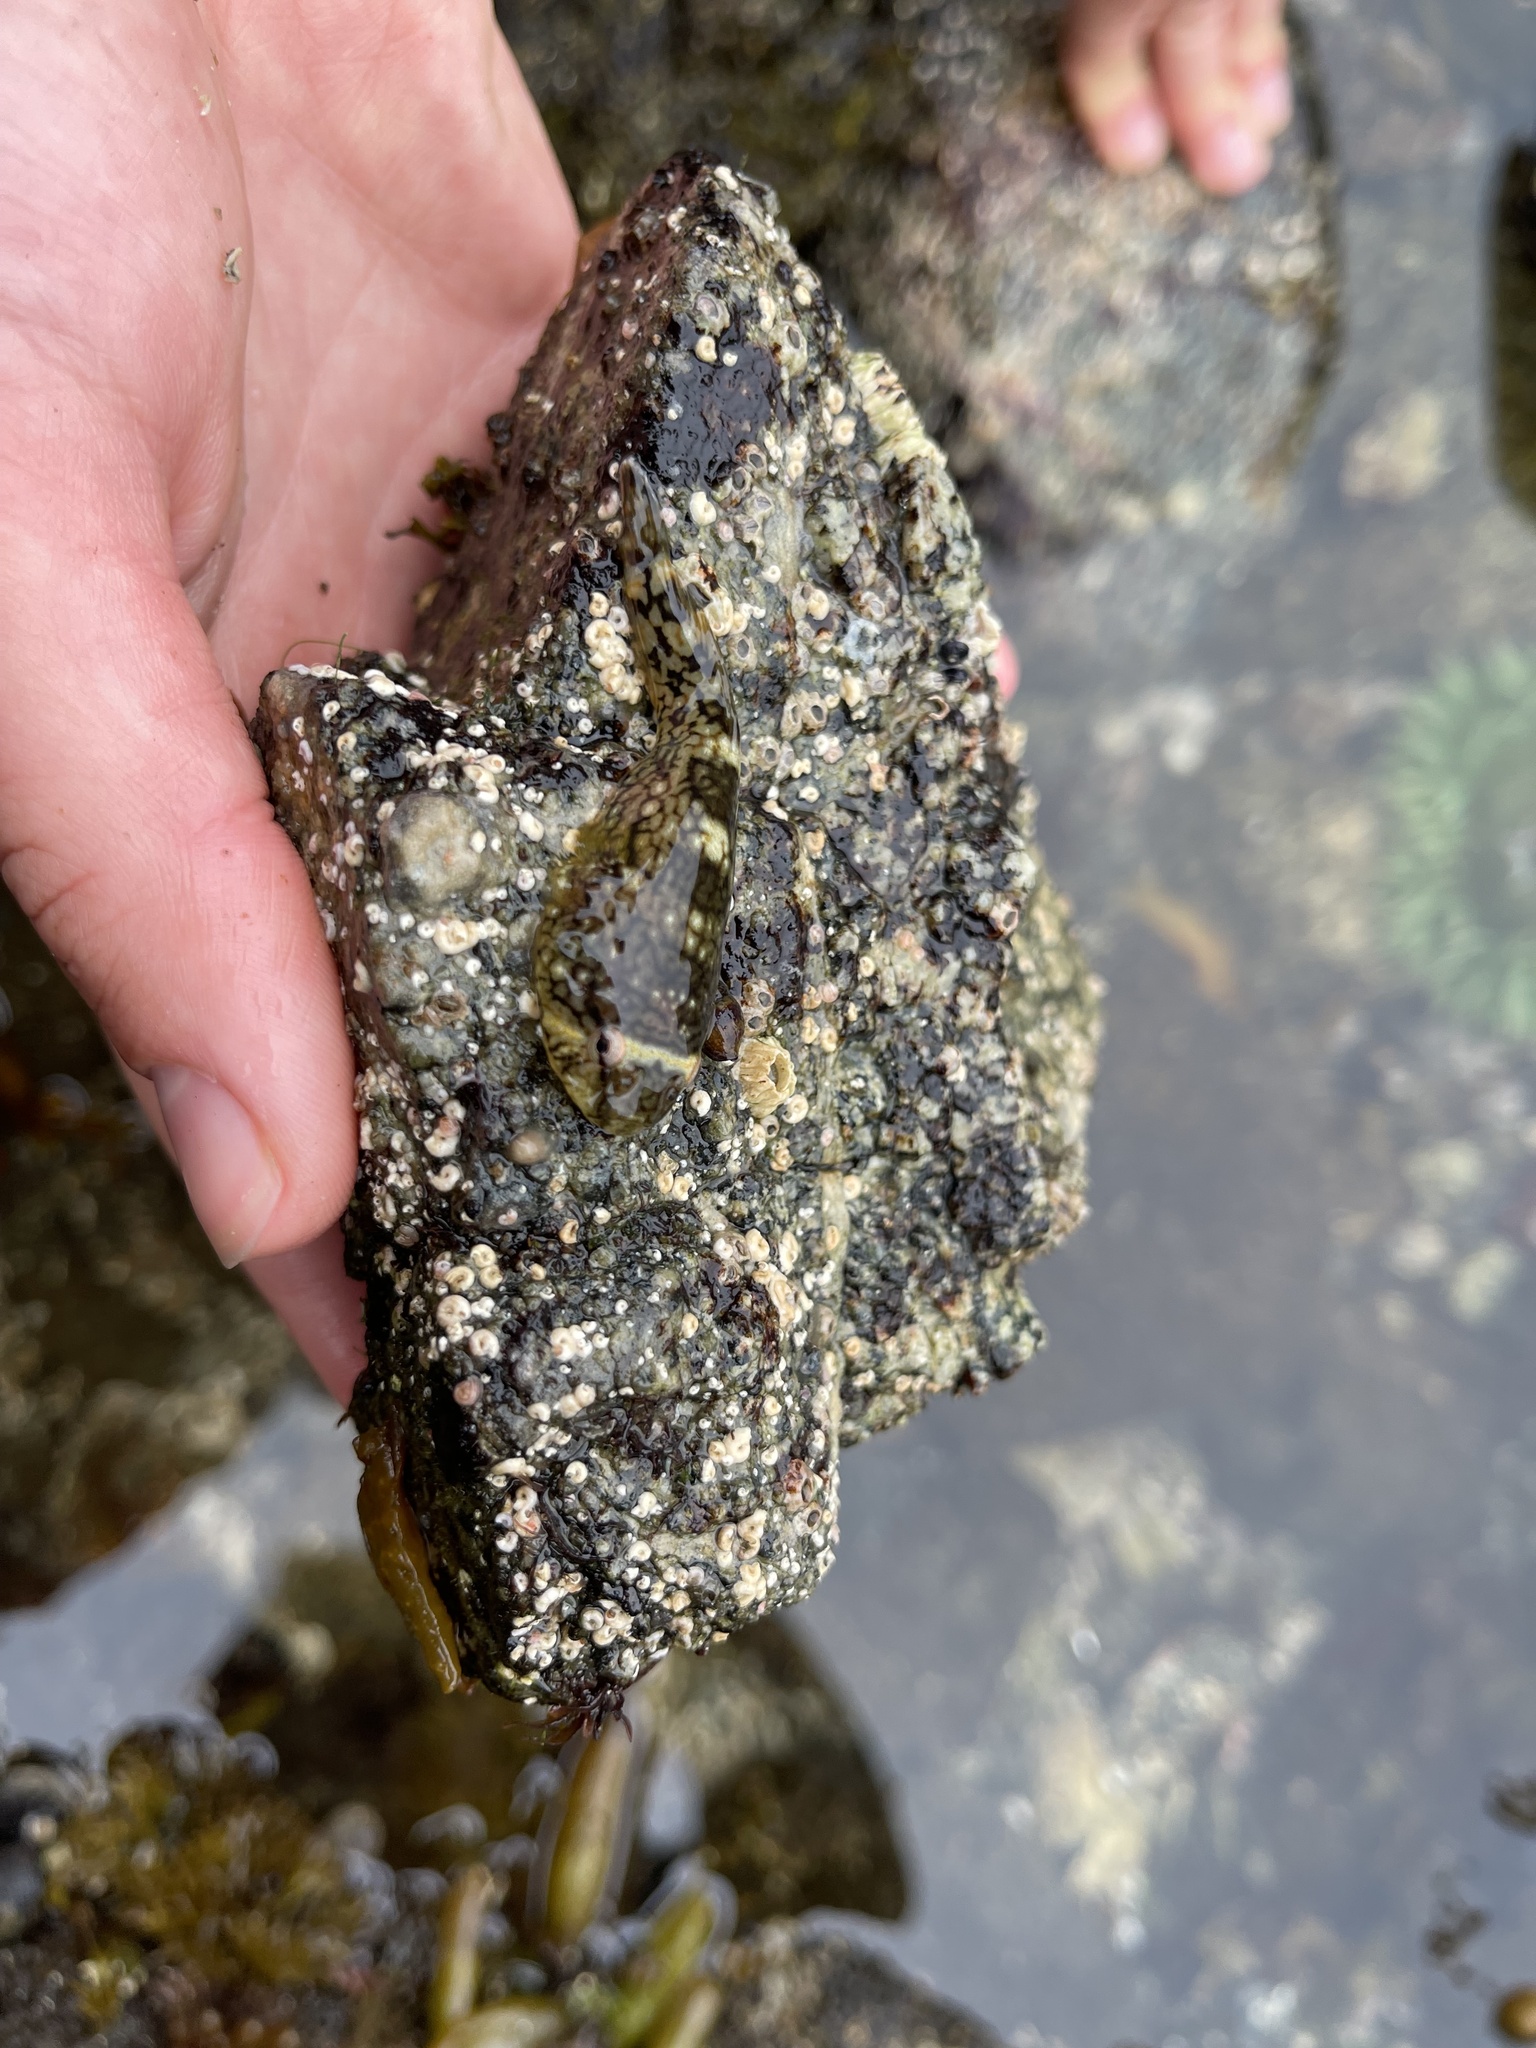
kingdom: Animalia
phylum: Chordata
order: Gobiesociformes
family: Gobiesocidae
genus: Gobiesox
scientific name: Gobiesox maeandricus
